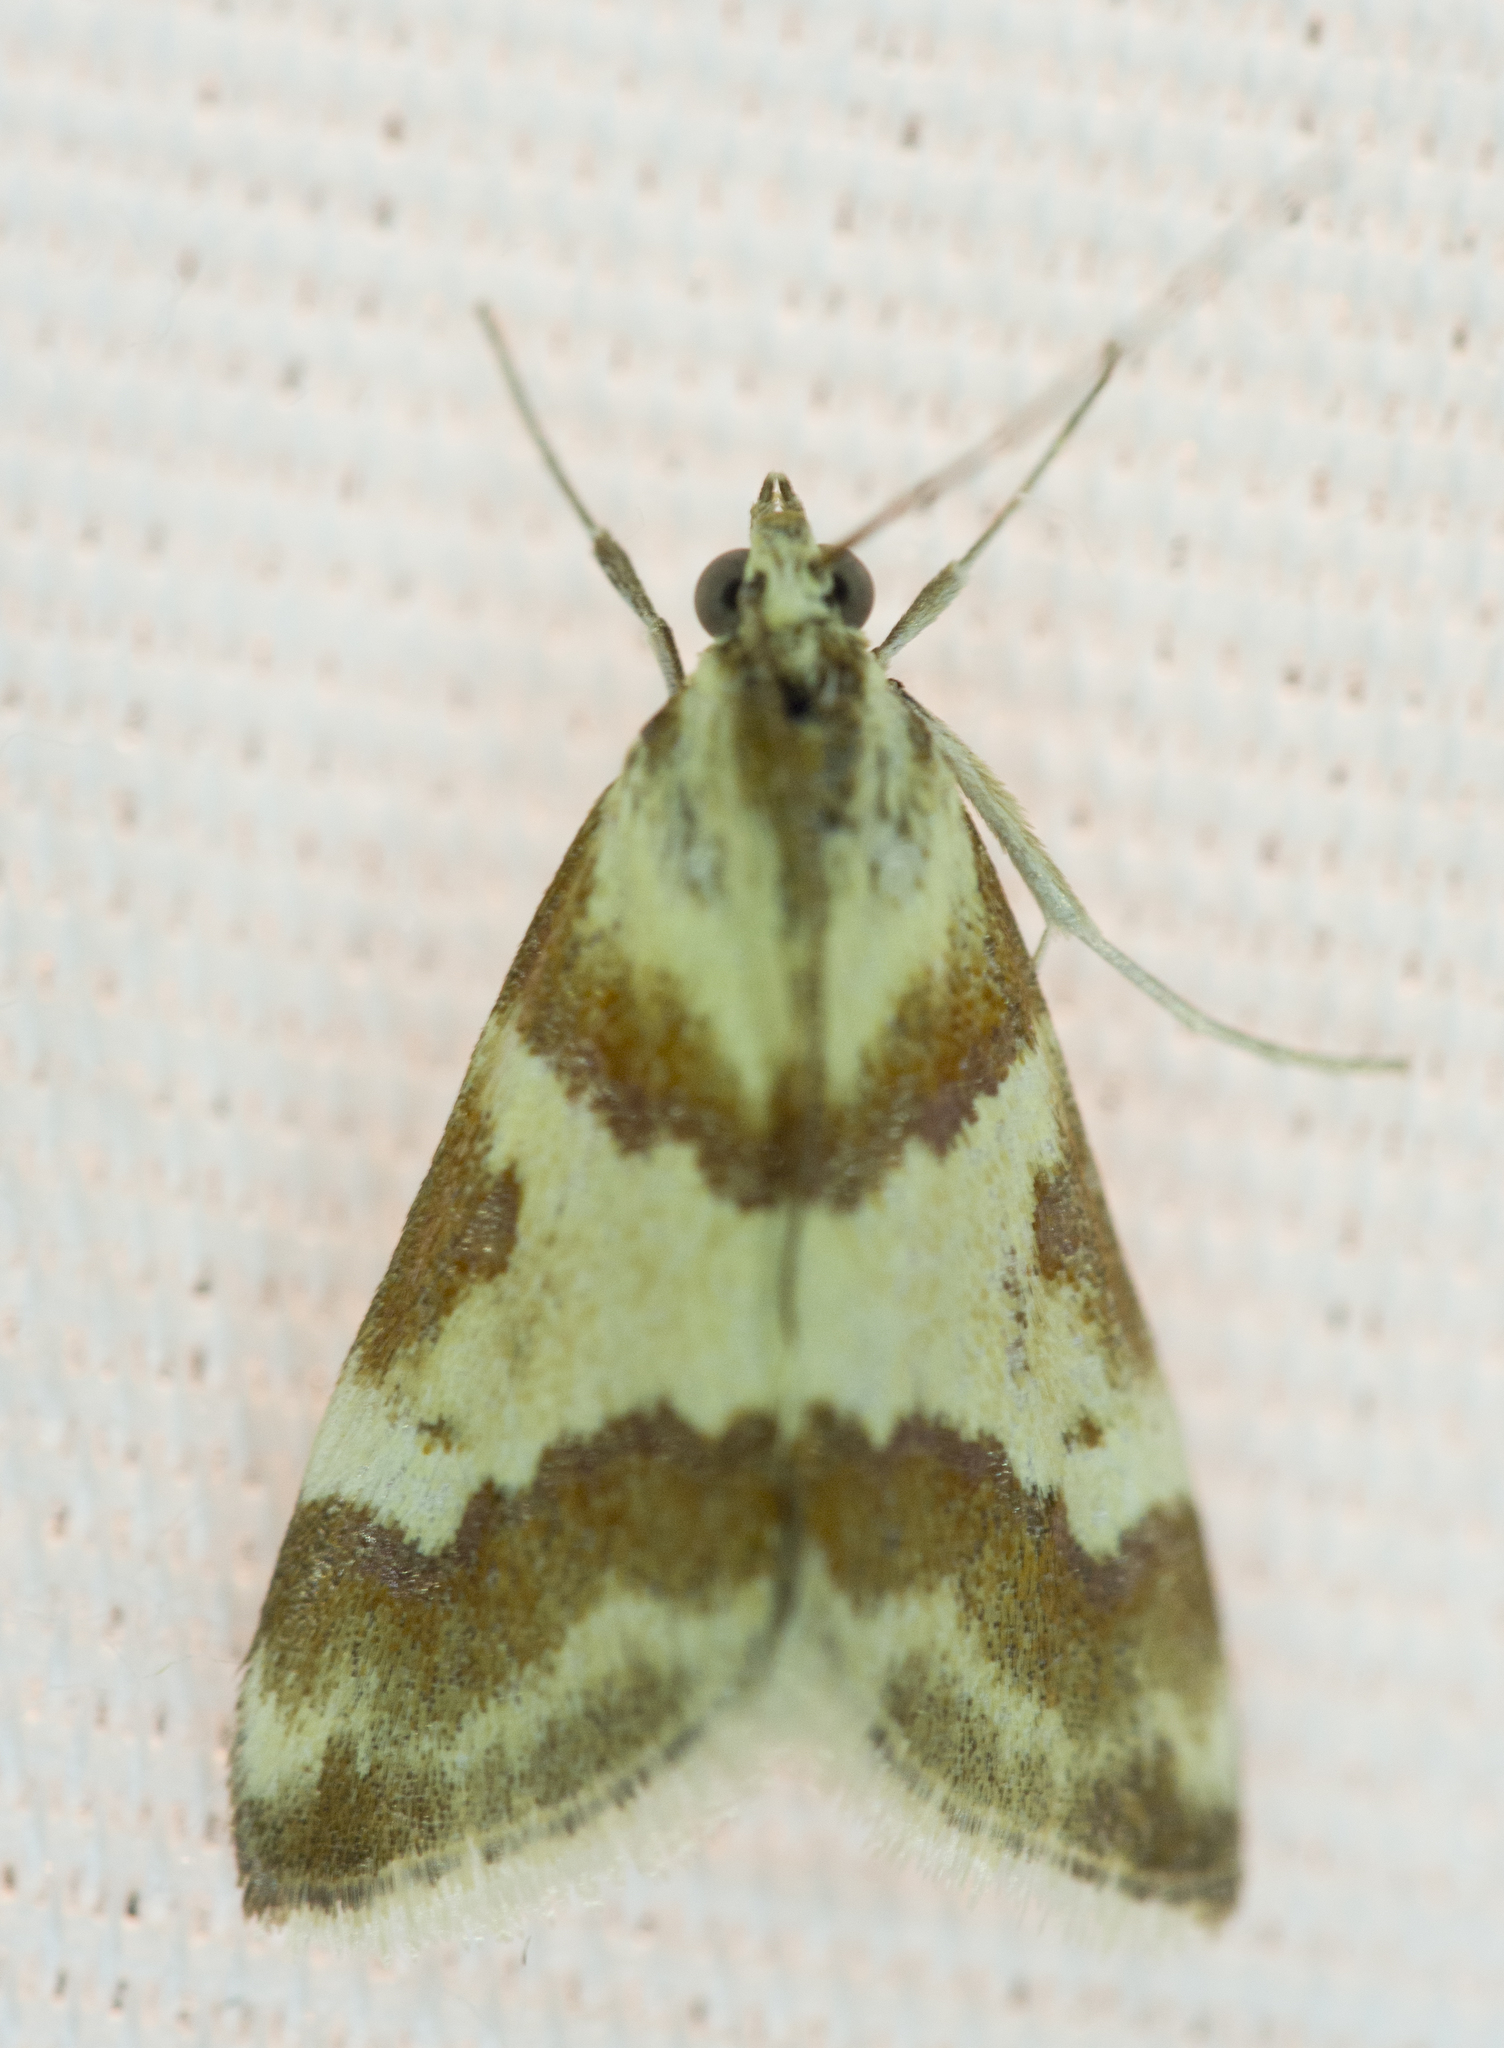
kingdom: Animalia
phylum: Arthropoda
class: Insecta
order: Lepidoptera
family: Crambidae
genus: Noctuelia
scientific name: Noctuelia Mimoschinia rufofascialis
